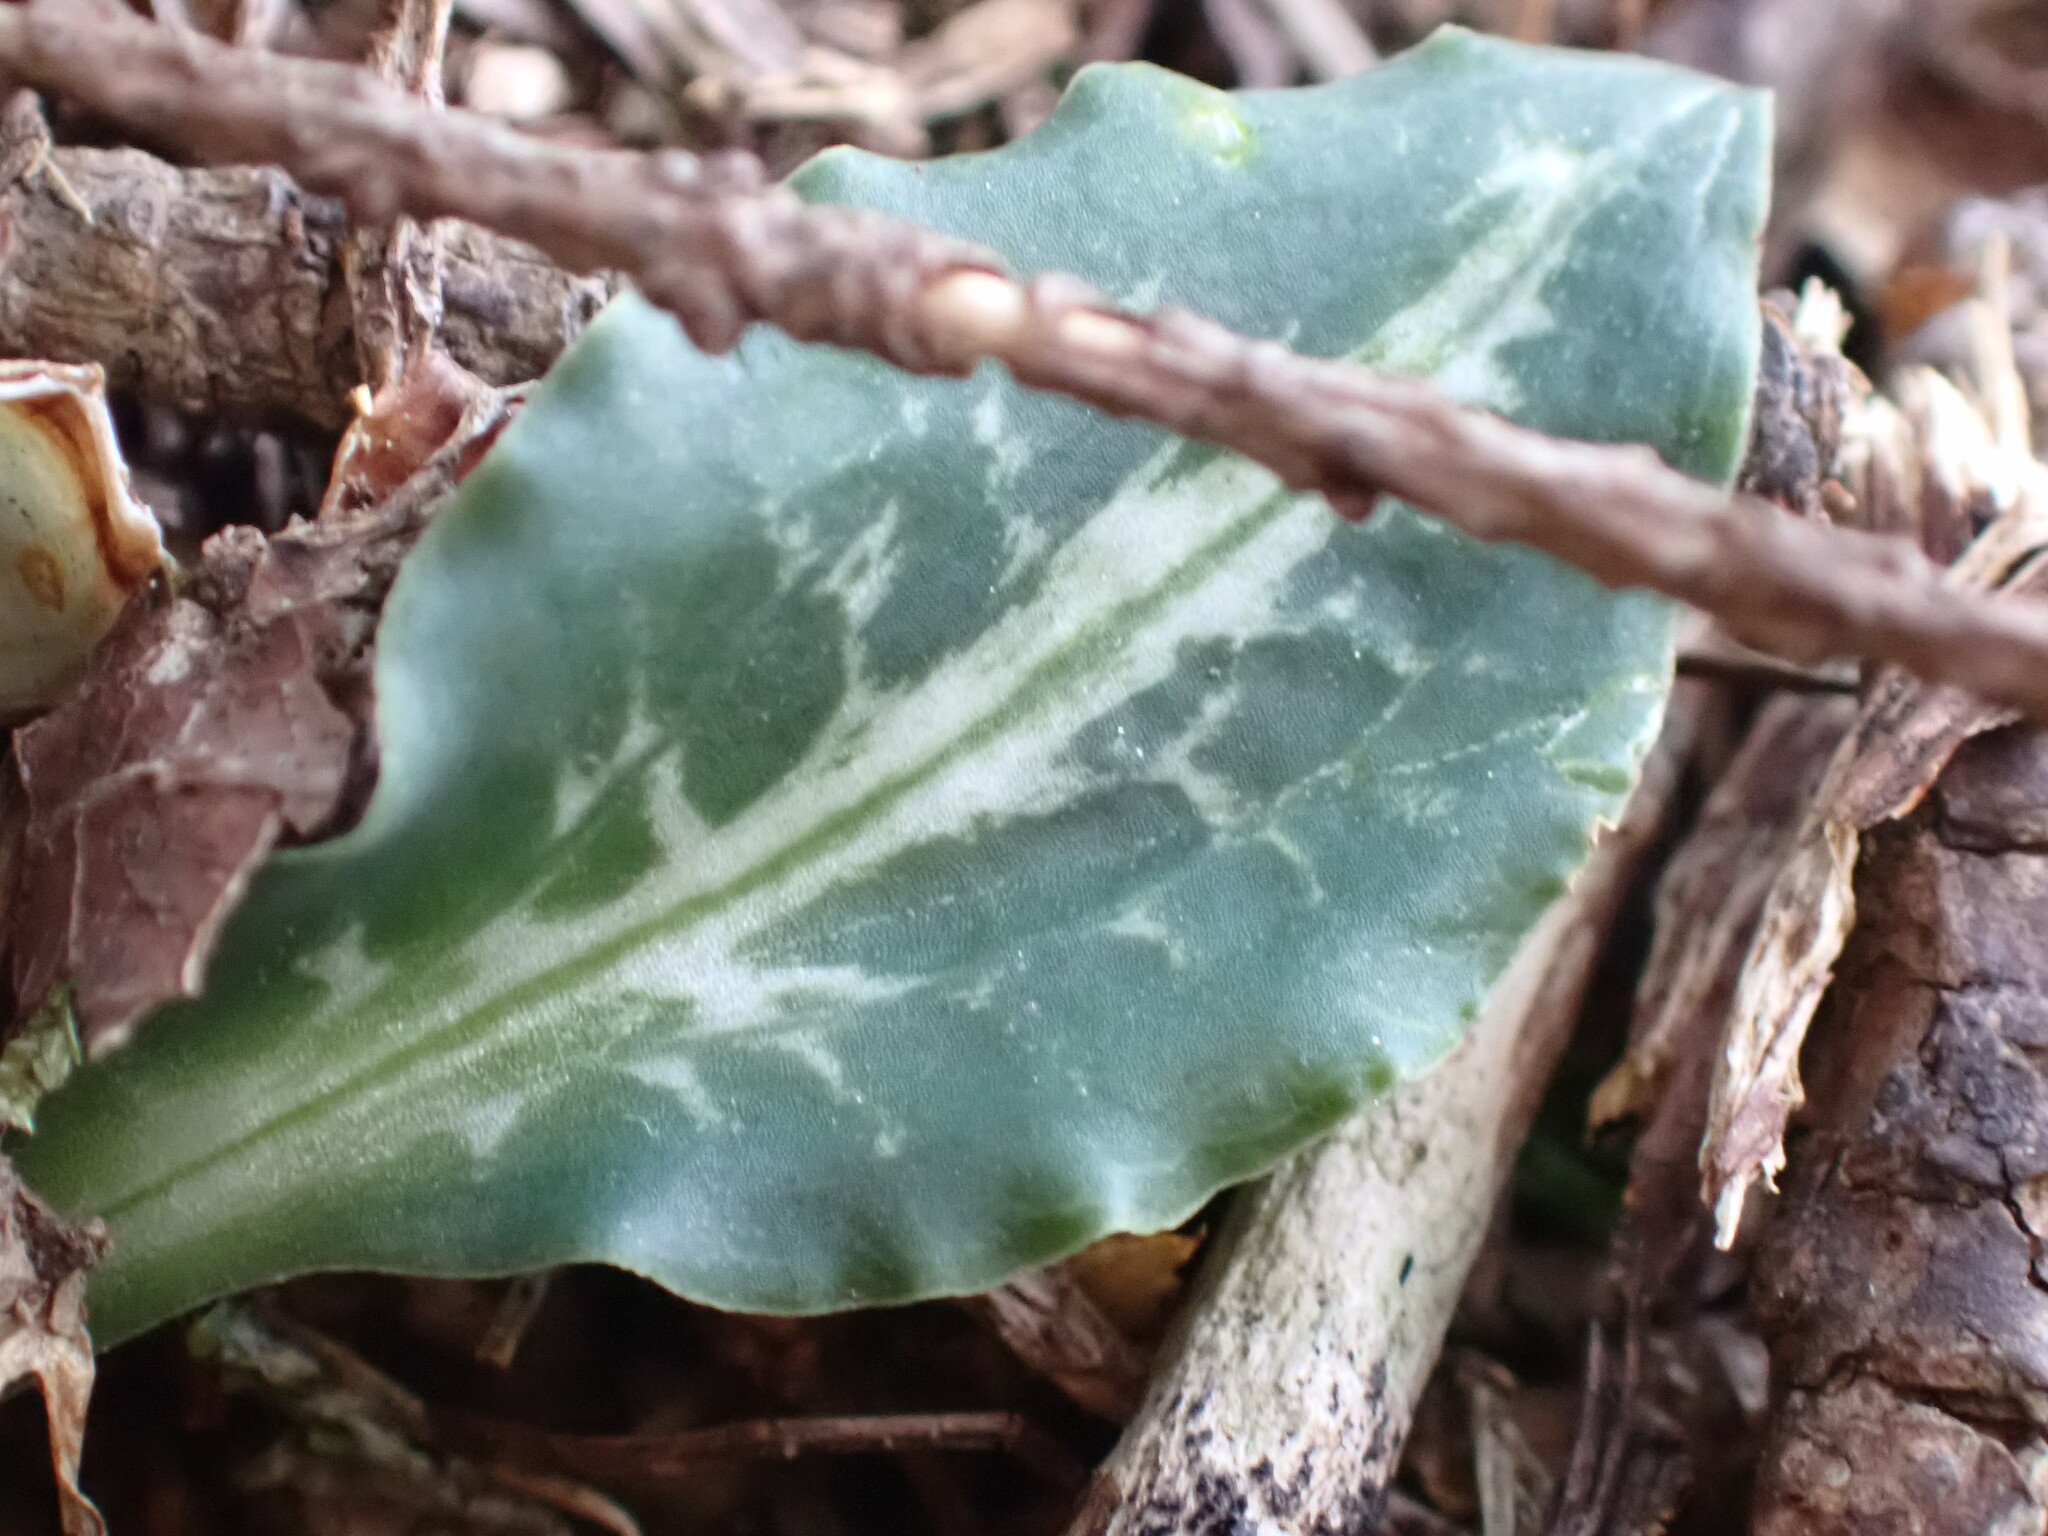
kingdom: Plantae
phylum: Tracheophyta
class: Liliopsida
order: Asparagales
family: Orchidaceae
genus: Goodyera
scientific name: Goodyera oblongifolia
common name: Giant rattlesnake-plantain
